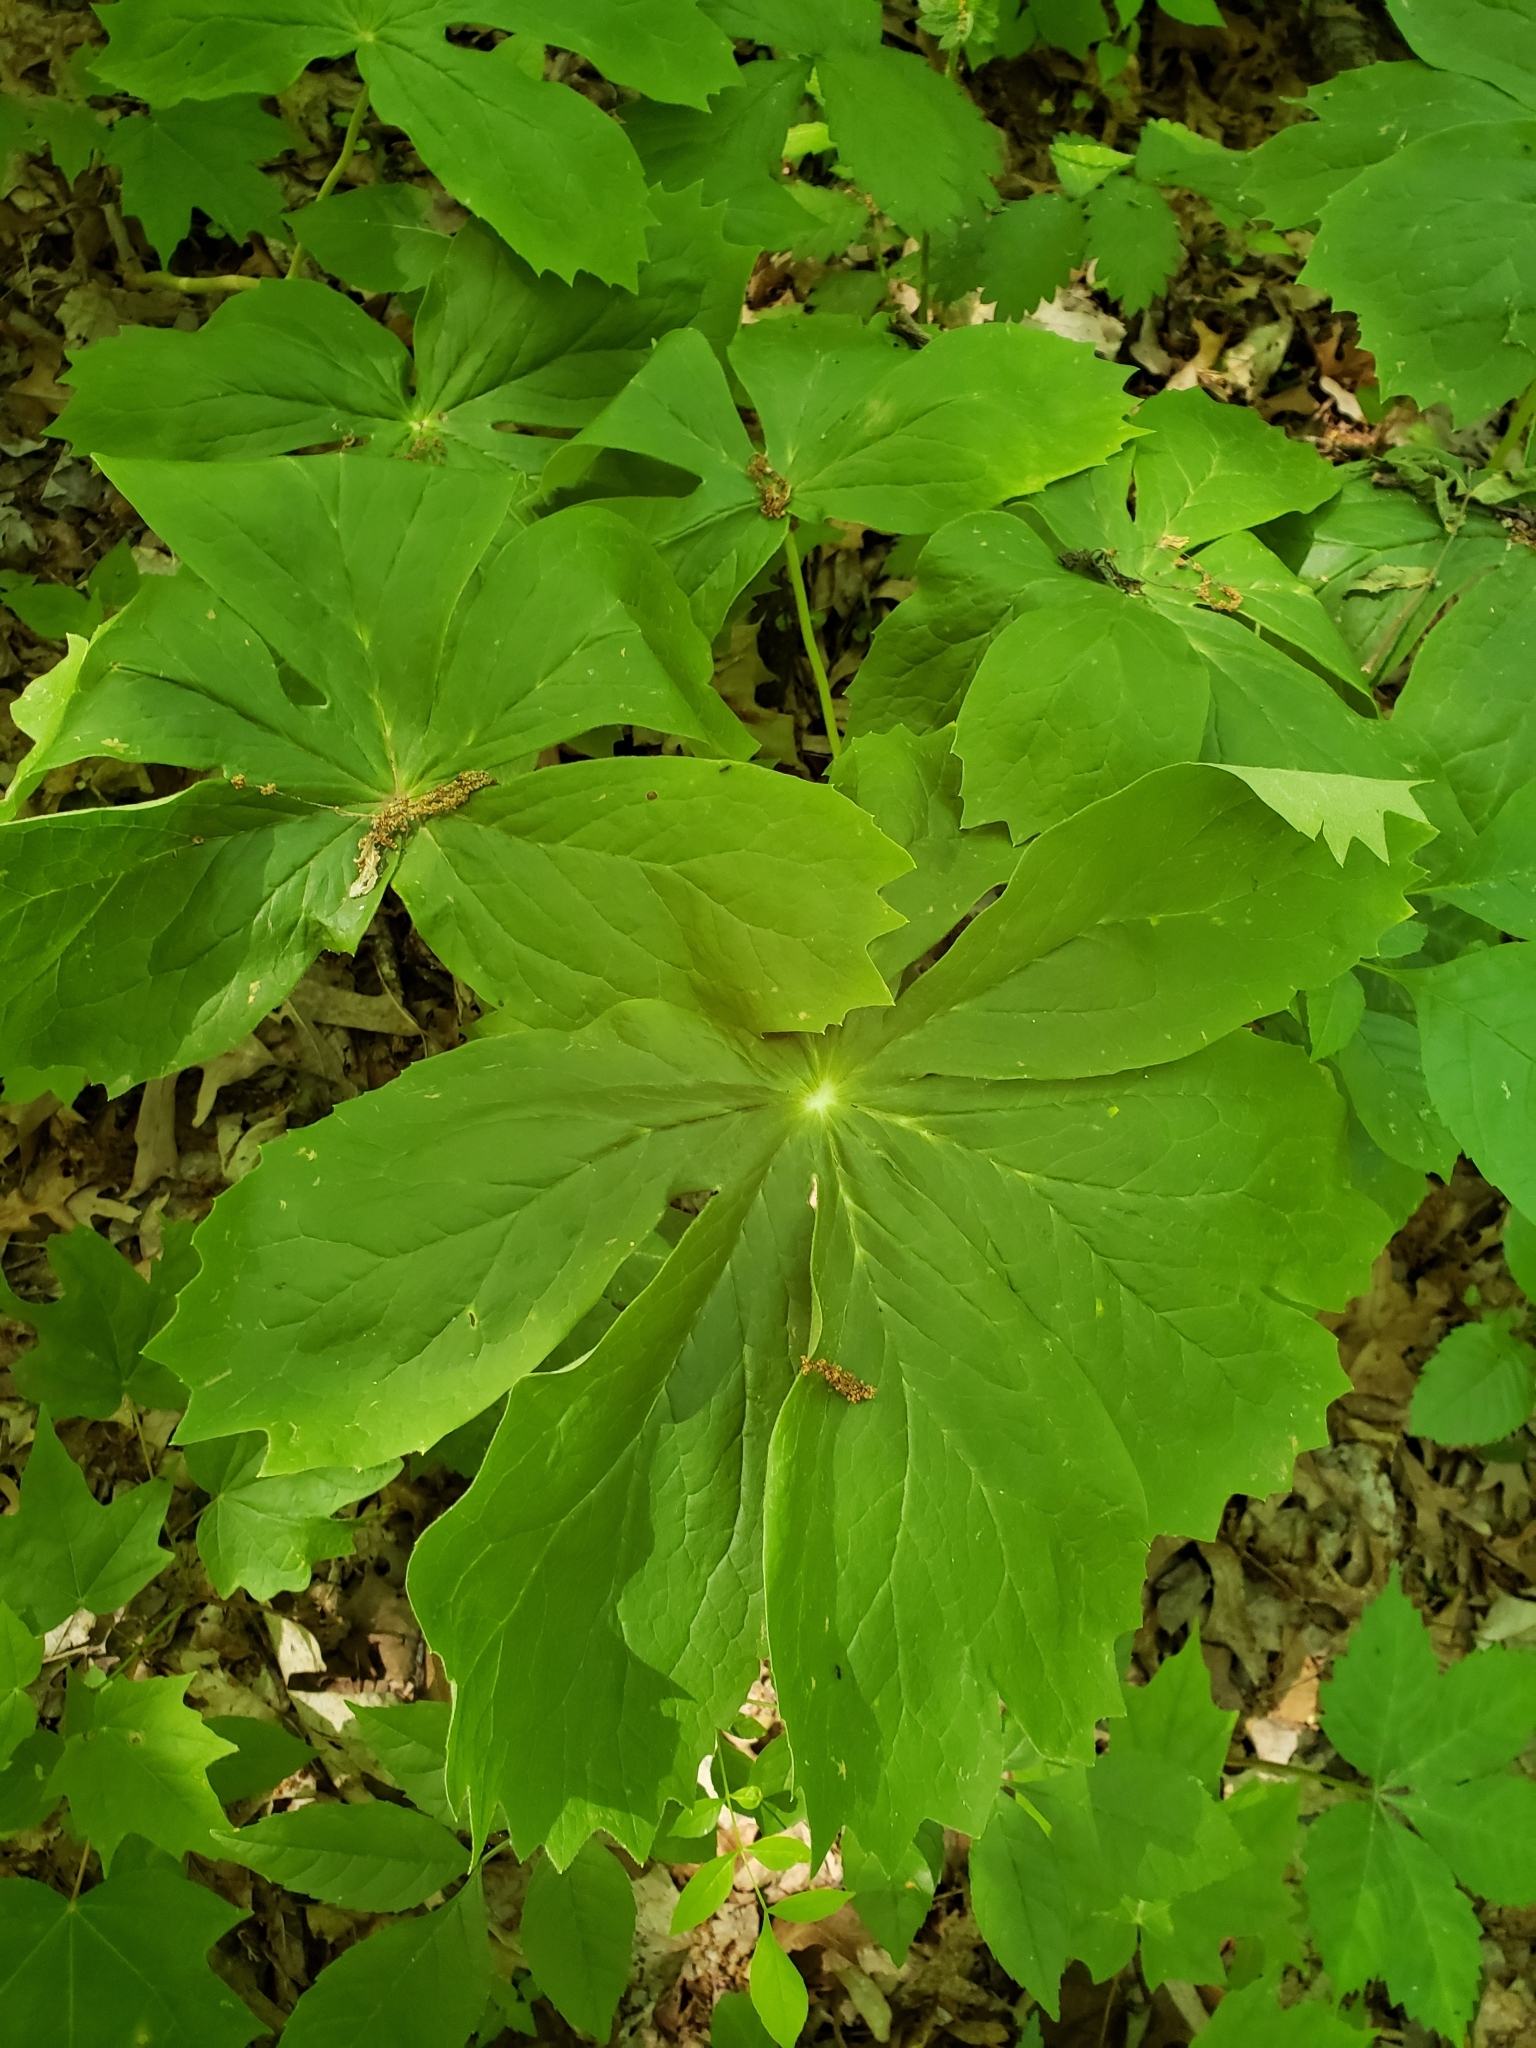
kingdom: Plantae
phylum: Tracheophyta
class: Magnoliopsida
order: Ranunculales
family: Berberidaceae
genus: Podophyllum
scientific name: Podophyllum peltatum
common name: Wild mandrake
